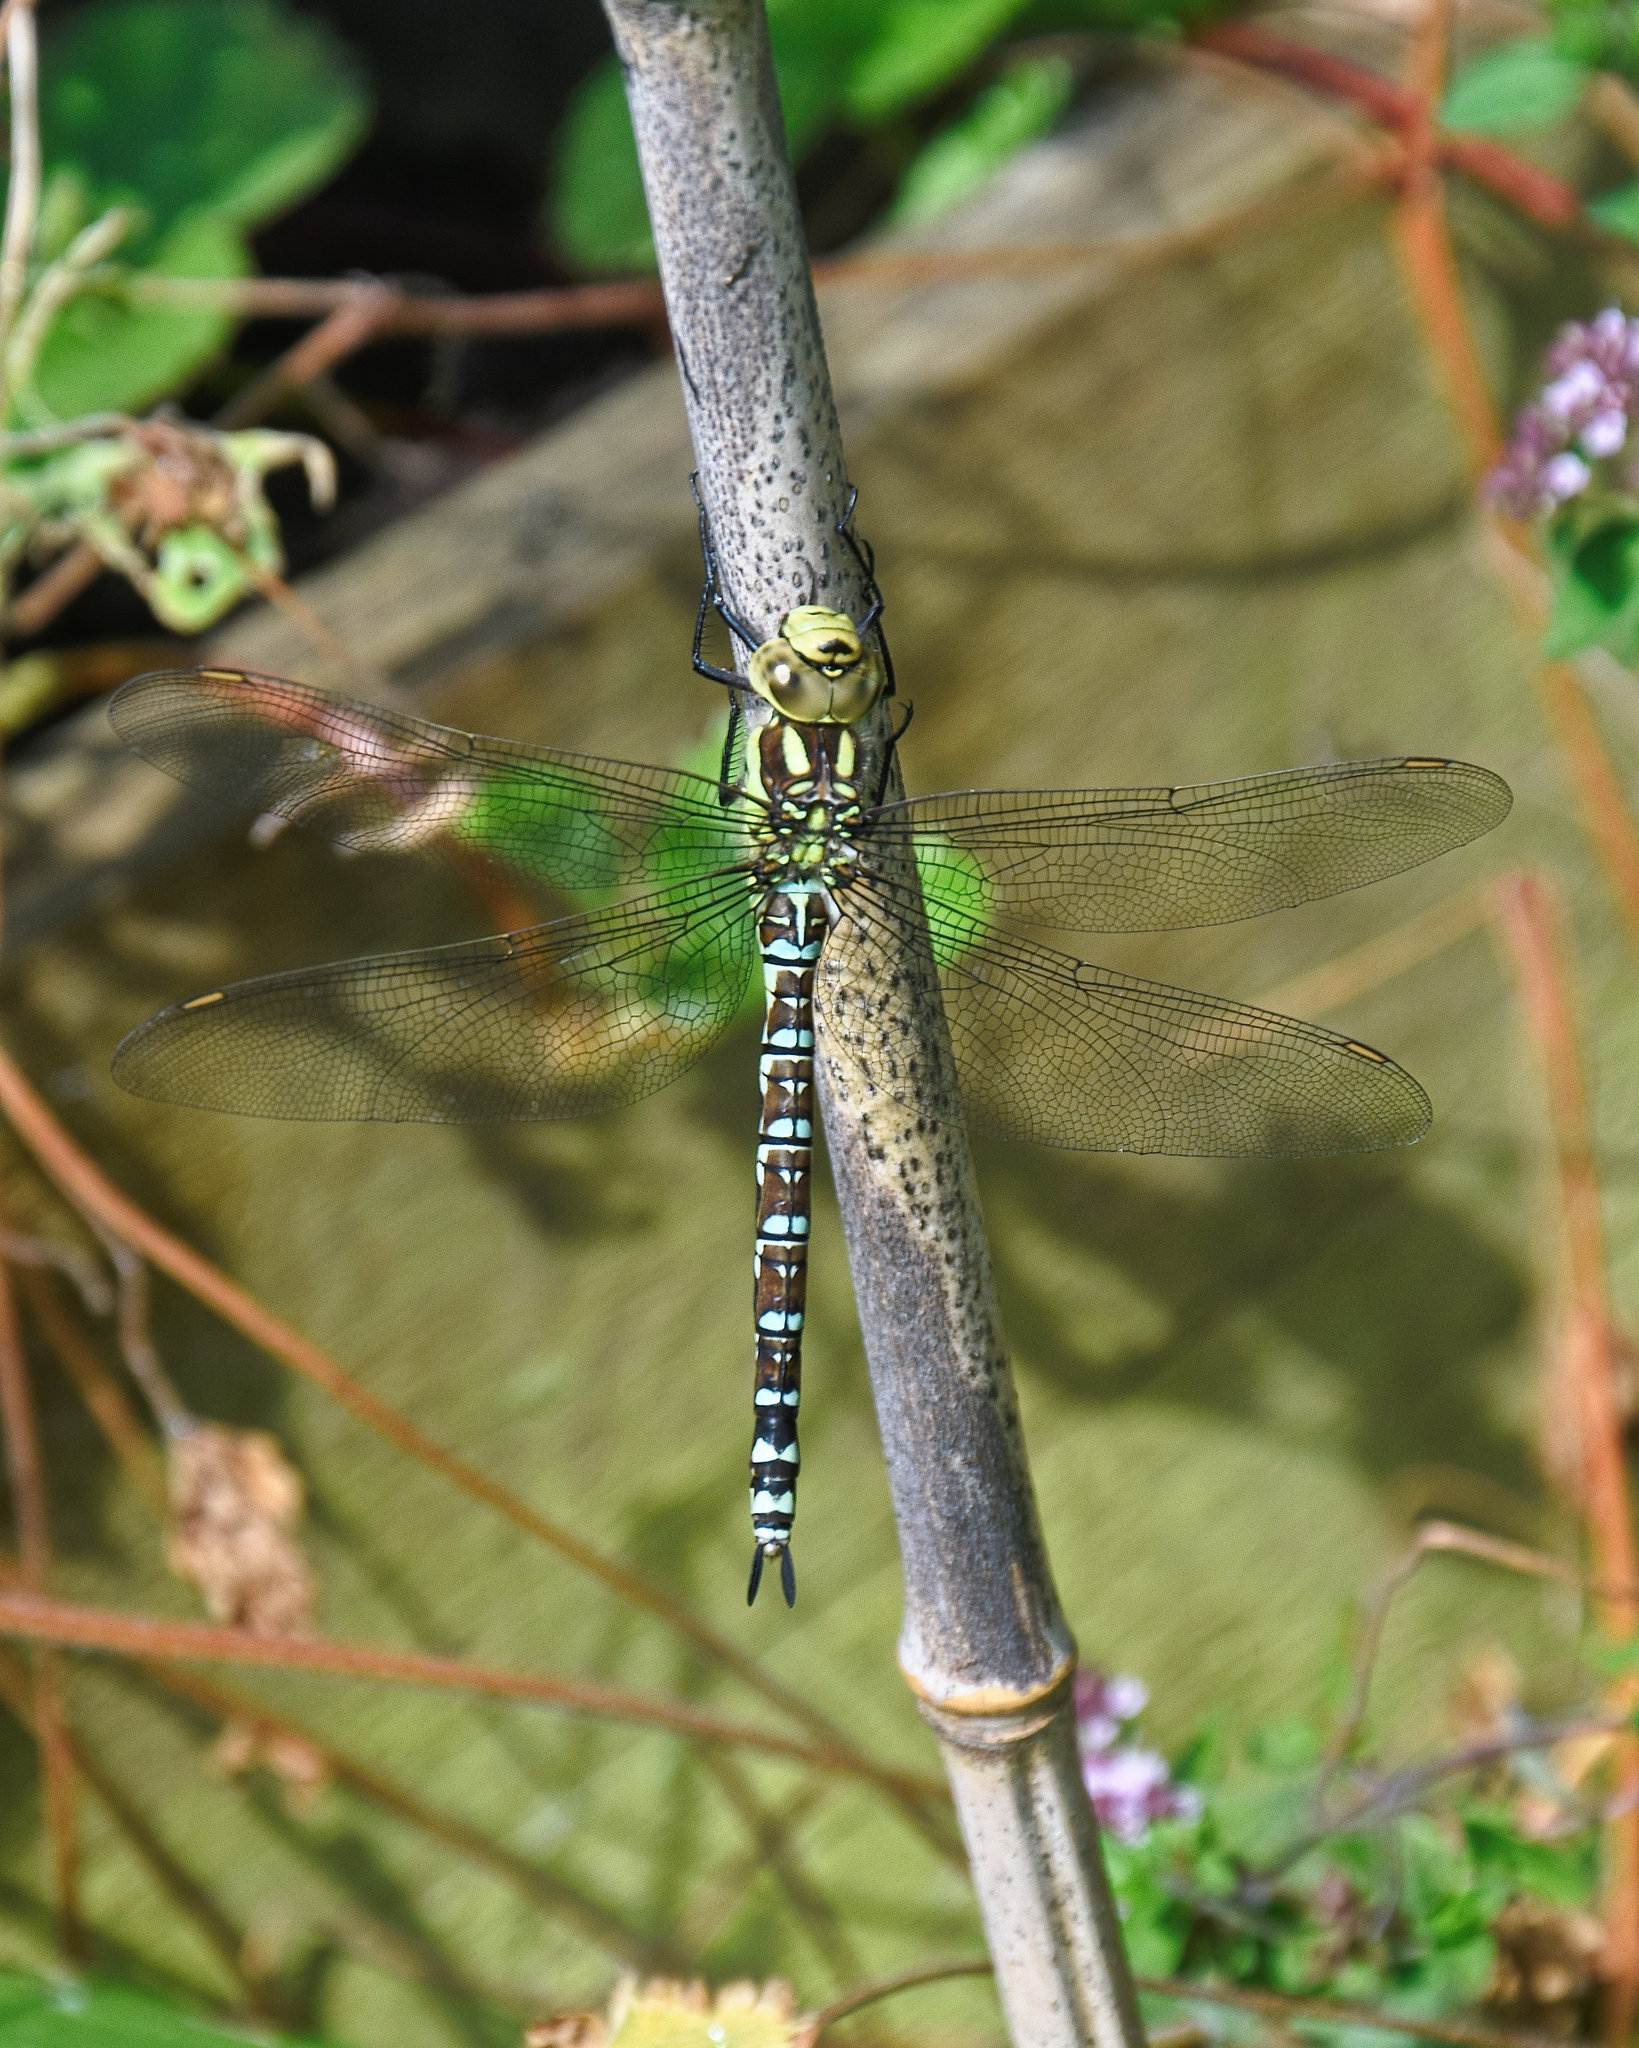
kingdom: Animalia
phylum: Arthropoda
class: Insecta
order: Odonata
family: Aeshnidae
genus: Aeshna
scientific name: Aeshna cyanea
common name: Southern hawker
